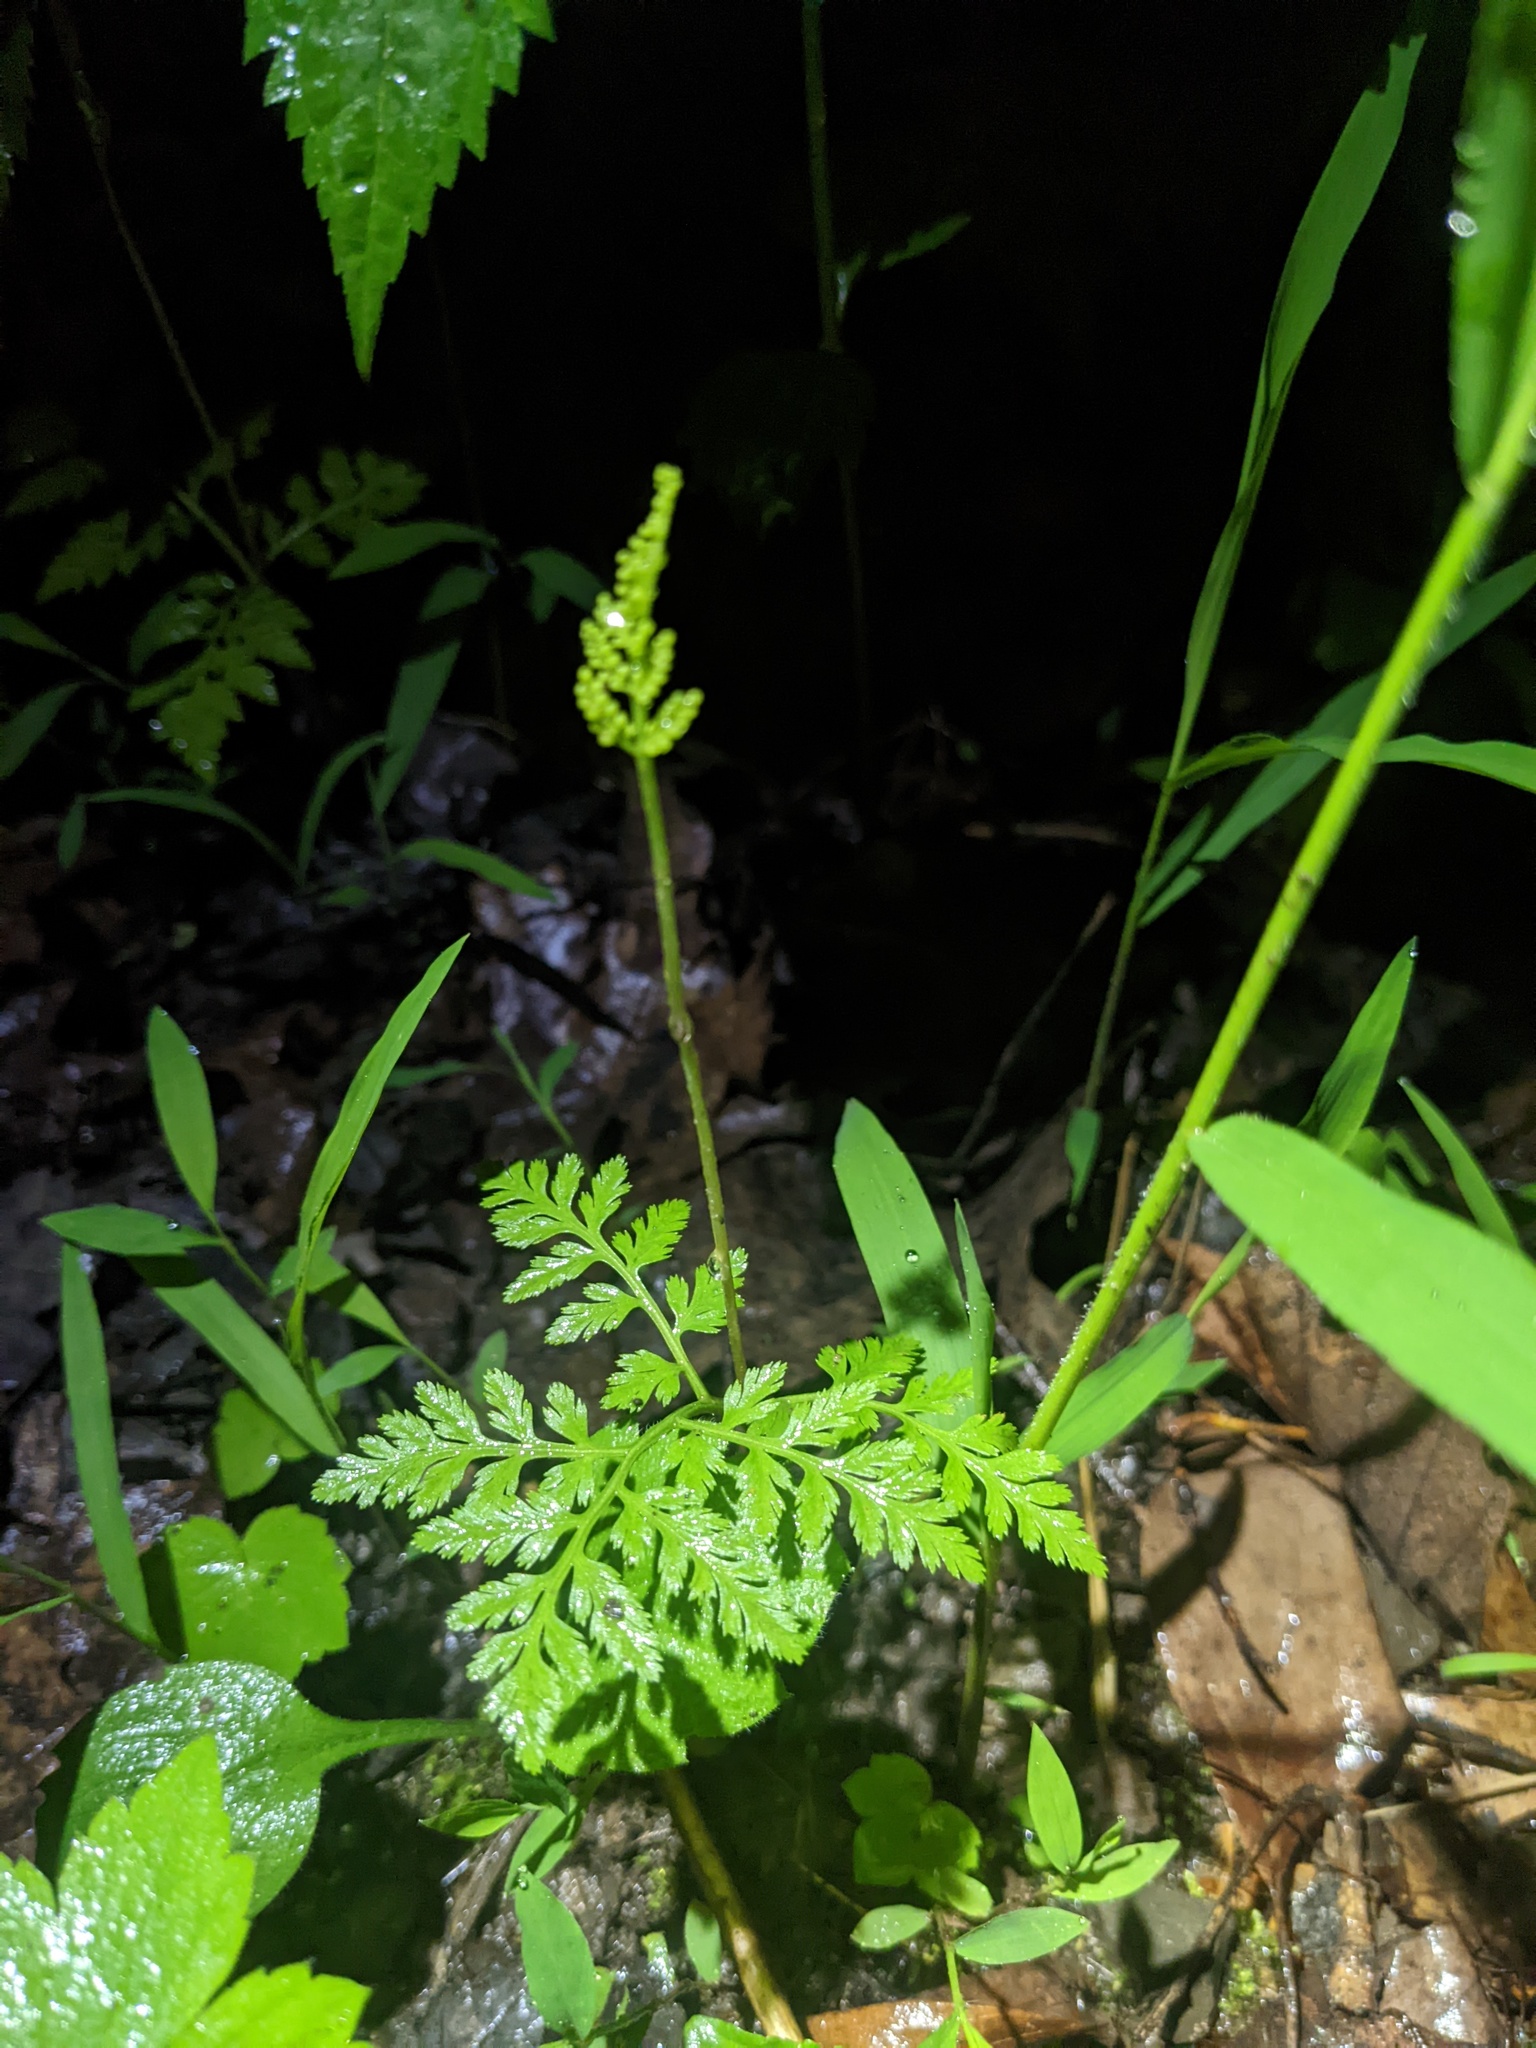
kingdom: Plantae
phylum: Tracheophyta
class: Polypodiopsida
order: Ophioglossales
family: Ophioglossaceae
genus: Botrypus
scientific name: Botrypus virginianus
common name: Common grapefern
